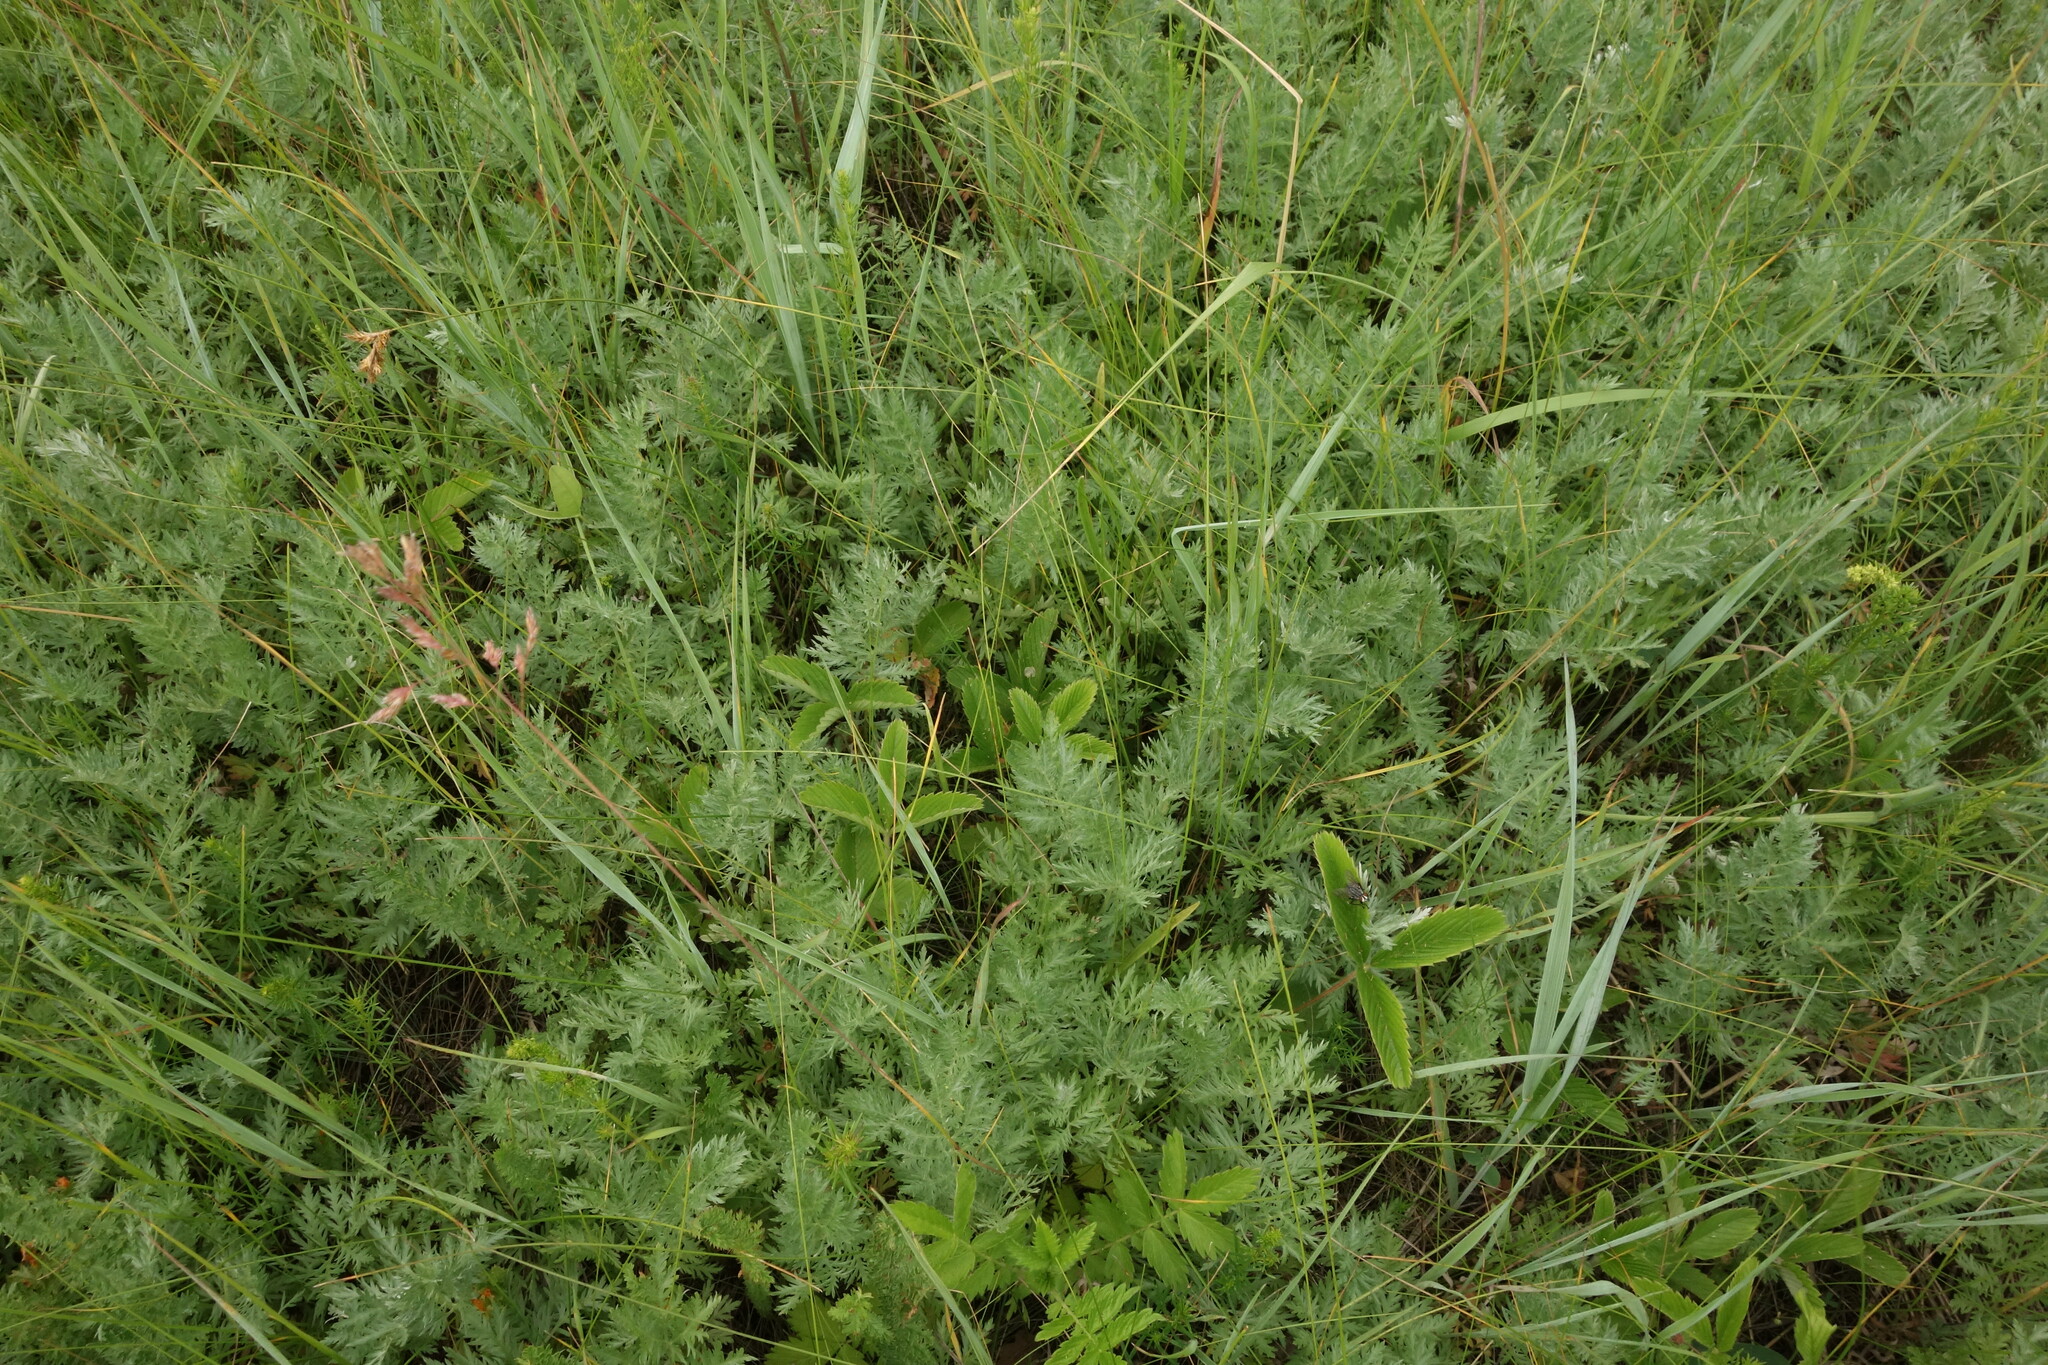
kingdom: Plantae
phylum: Tracheophyta
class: Magnoliopsida
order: Asterales
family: Asteraceae
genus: Artemisia
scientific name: Artemisia armeniaca
